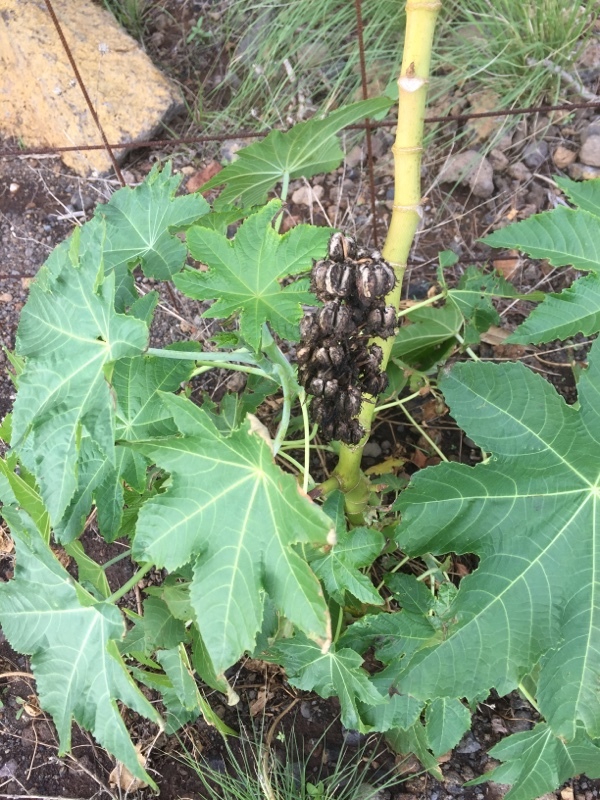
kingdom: Plantae
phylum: Tracheophyta
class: Magnoliopsida
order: Malpighiales
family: Euphorbiaceae
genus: Ricinus
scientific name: Ricinus communis
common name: Castor-oil-plant
